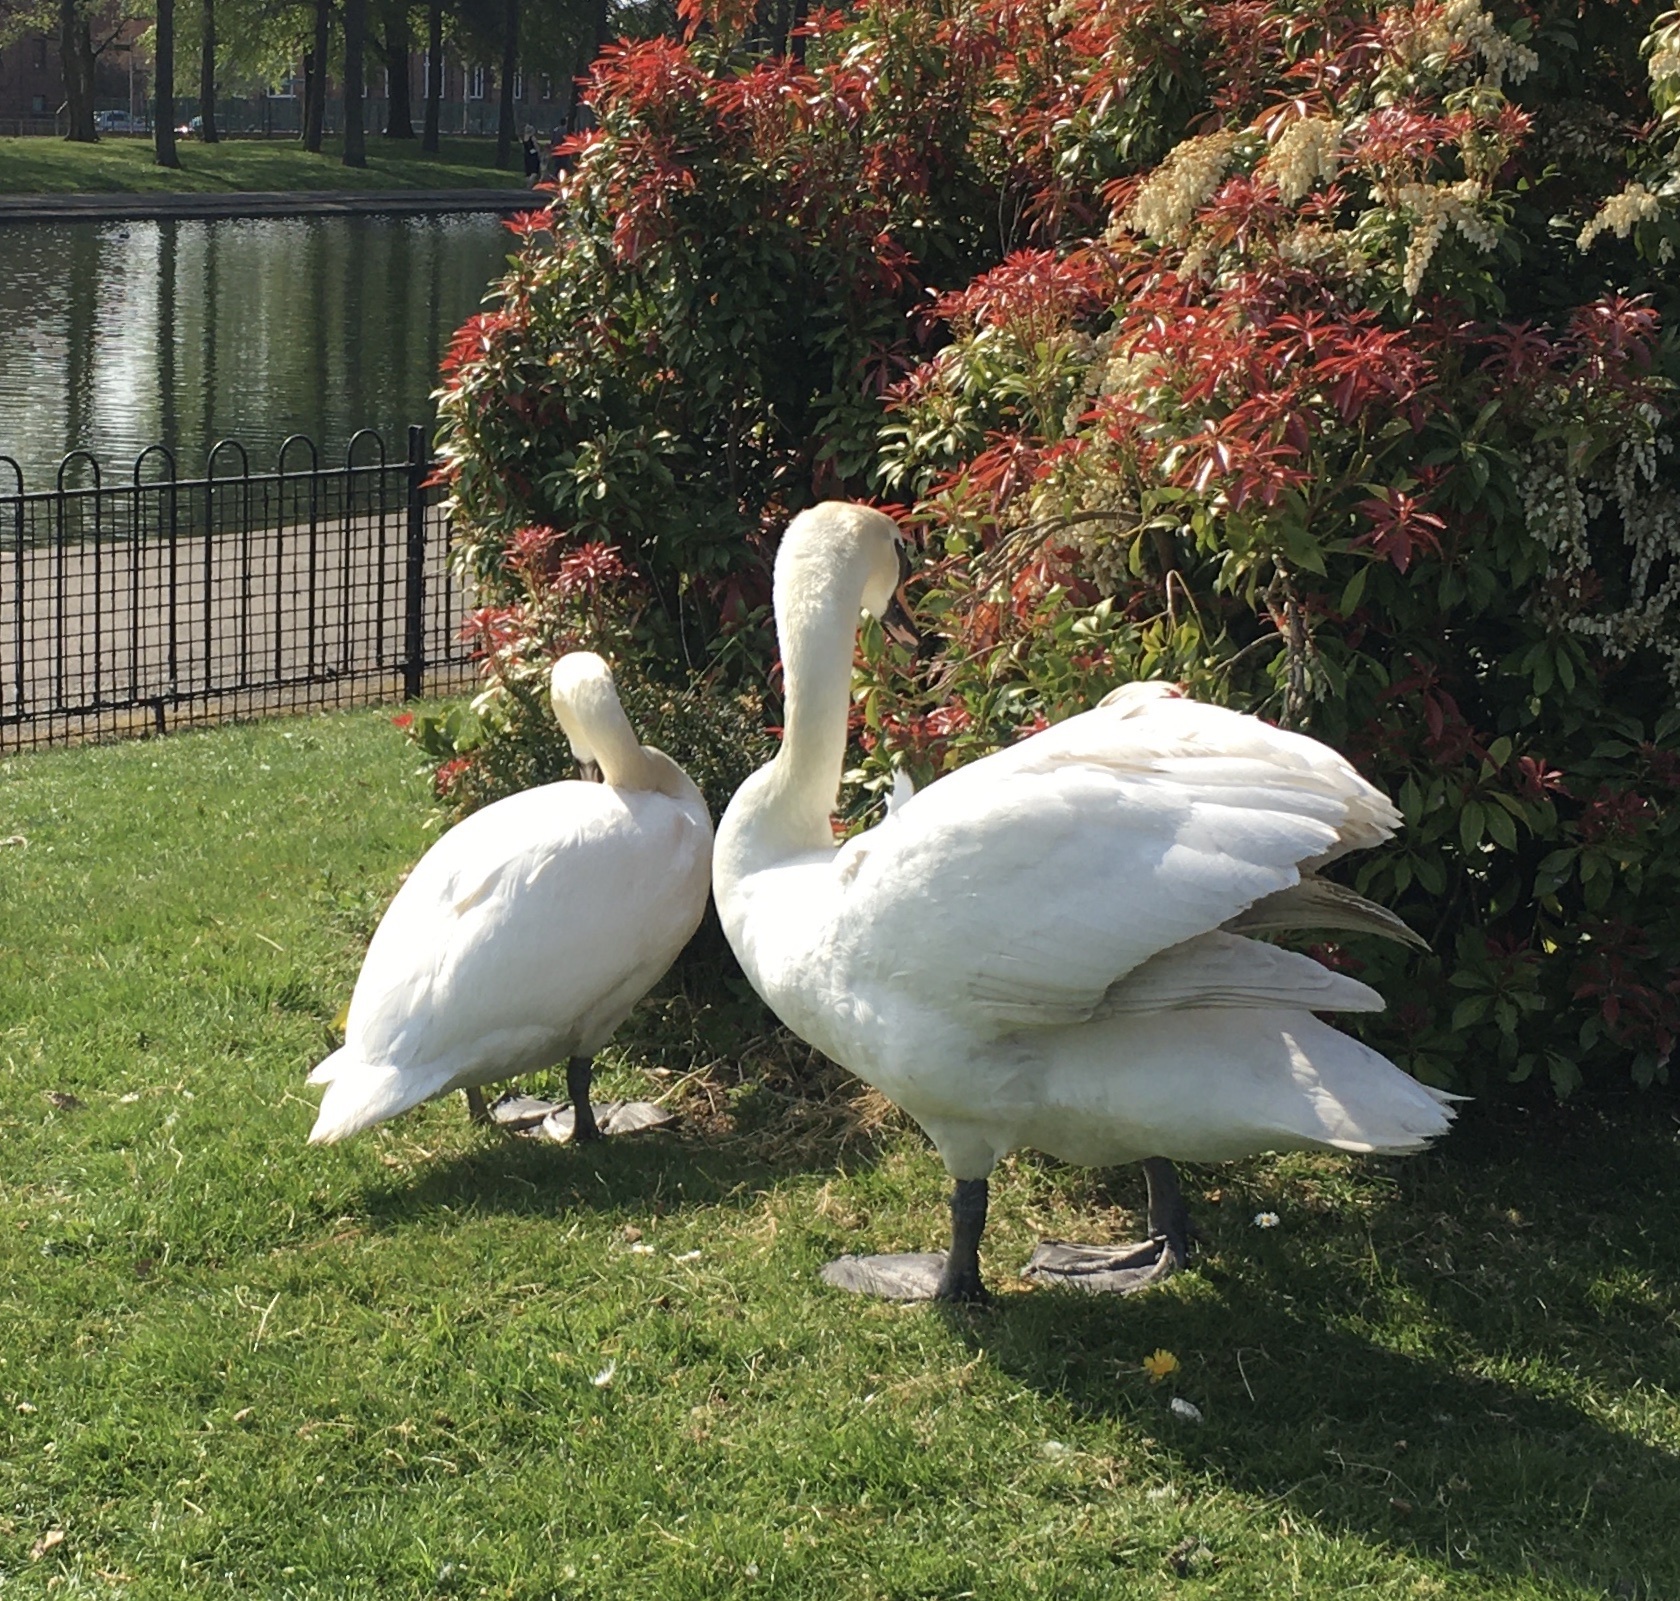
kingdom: Animalia
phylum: Chordata
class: Aves
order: Anseriformes
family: Anatidae
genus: Cygnus
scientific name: Cygnus olor
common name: Mute swan
